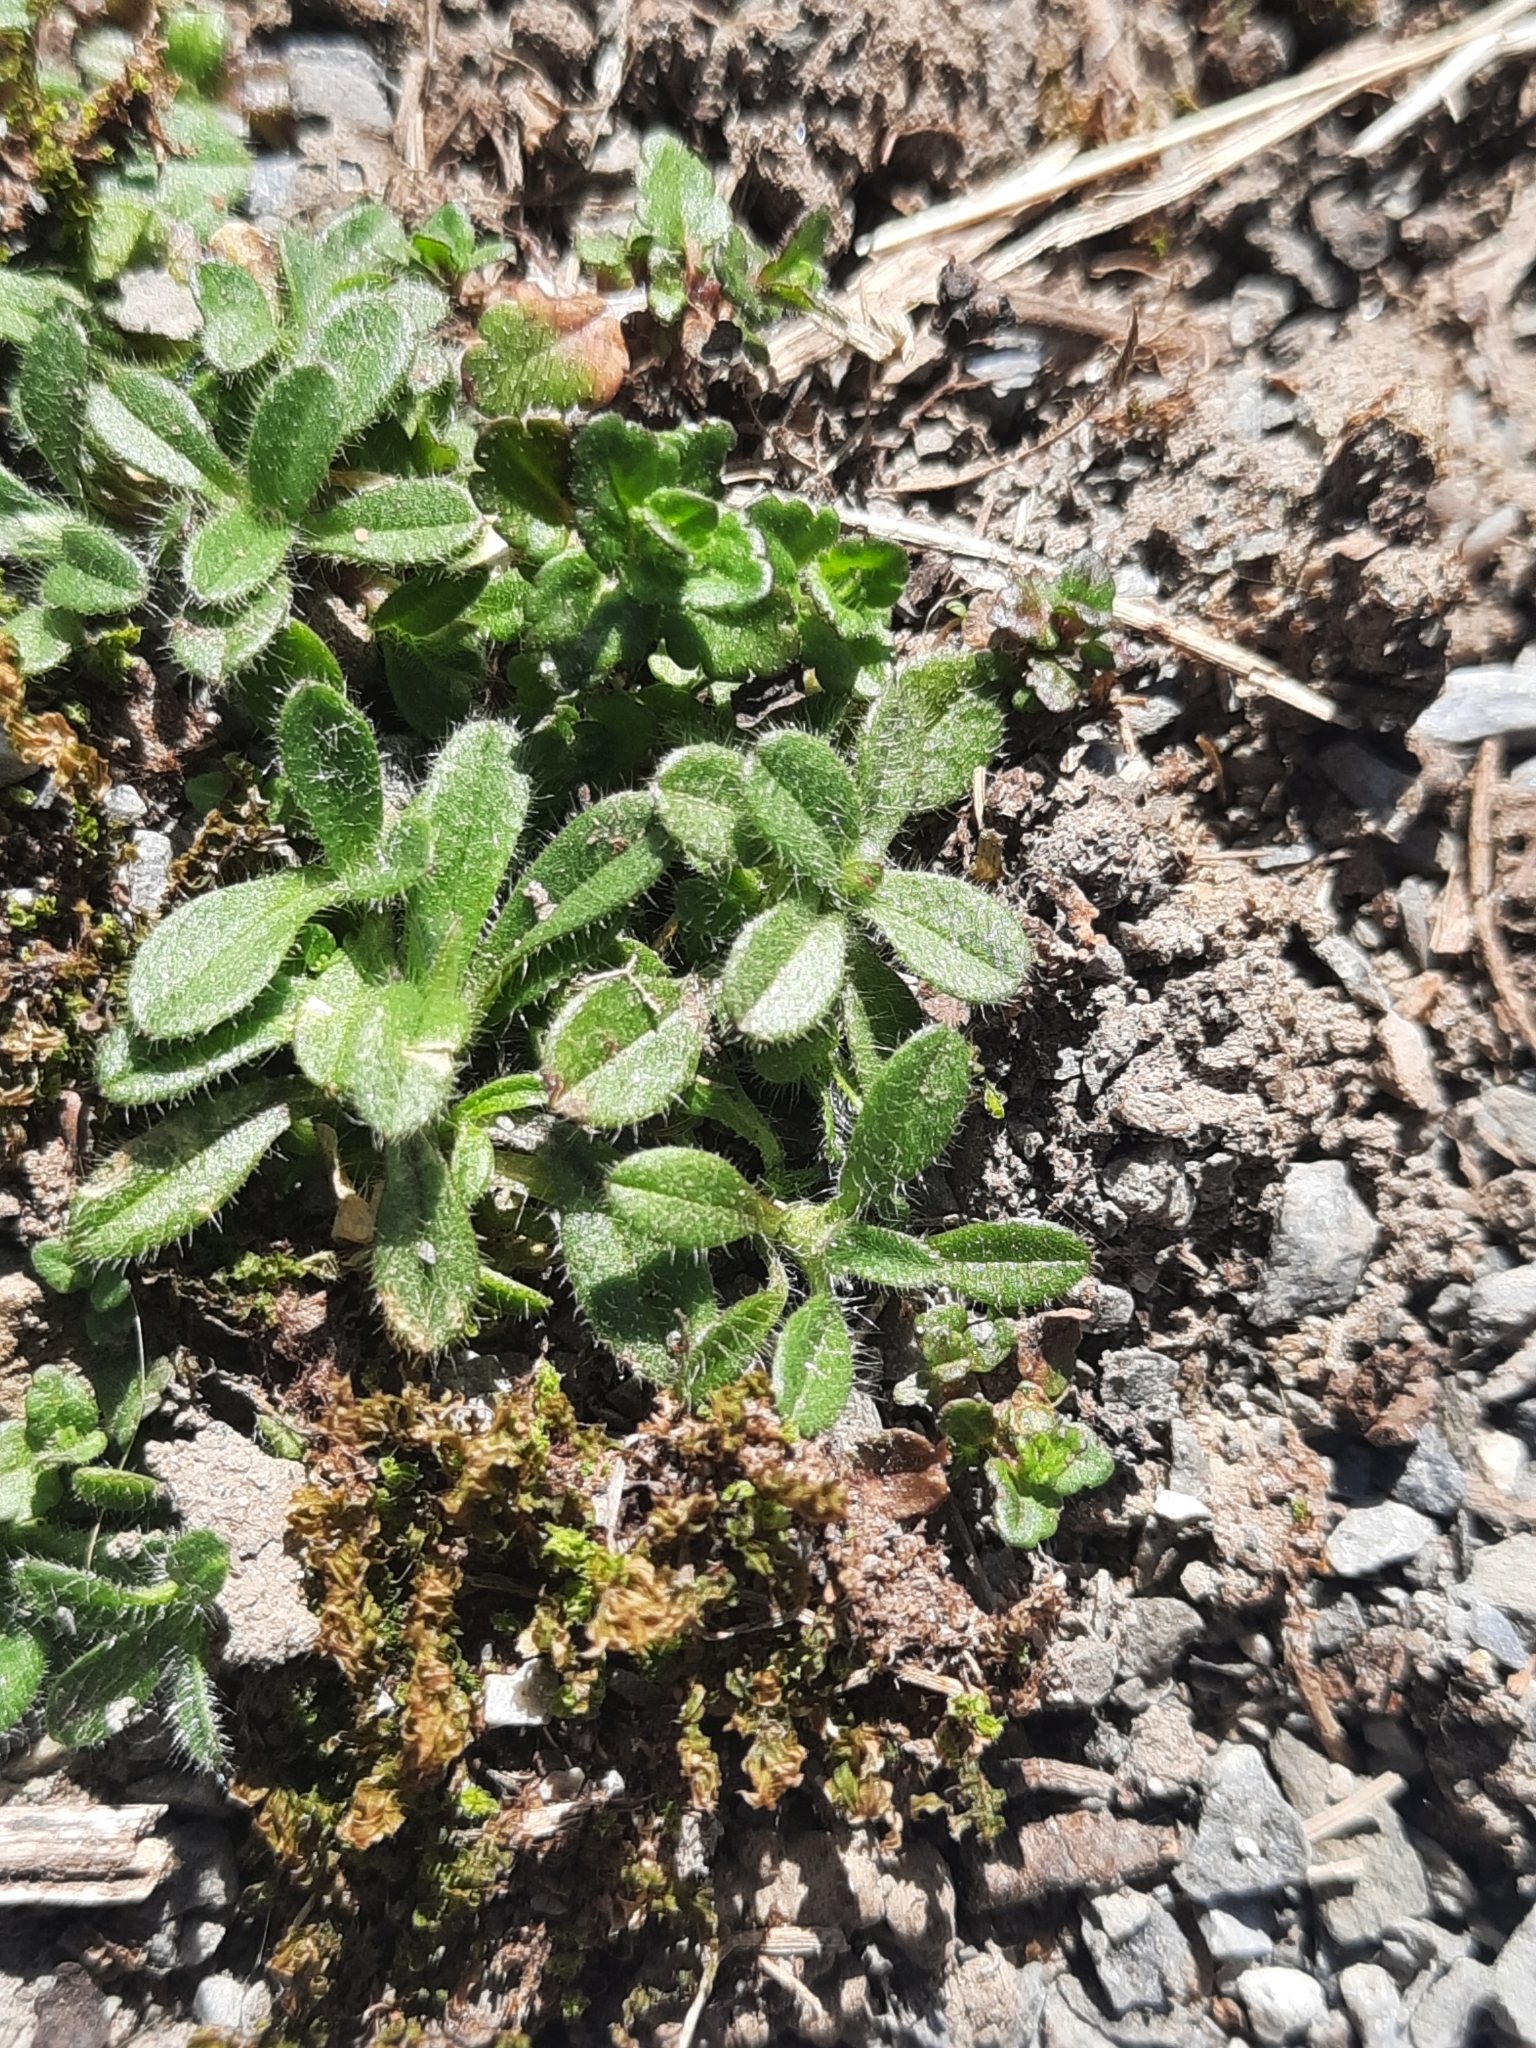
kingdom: Plantae
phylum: Tracheophyta
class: Magnoliopsida
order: Caryophyllales
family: Caryophyllaceae
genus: Cerastium
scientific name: Cerastium fontanum
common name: Common mouse-ear
